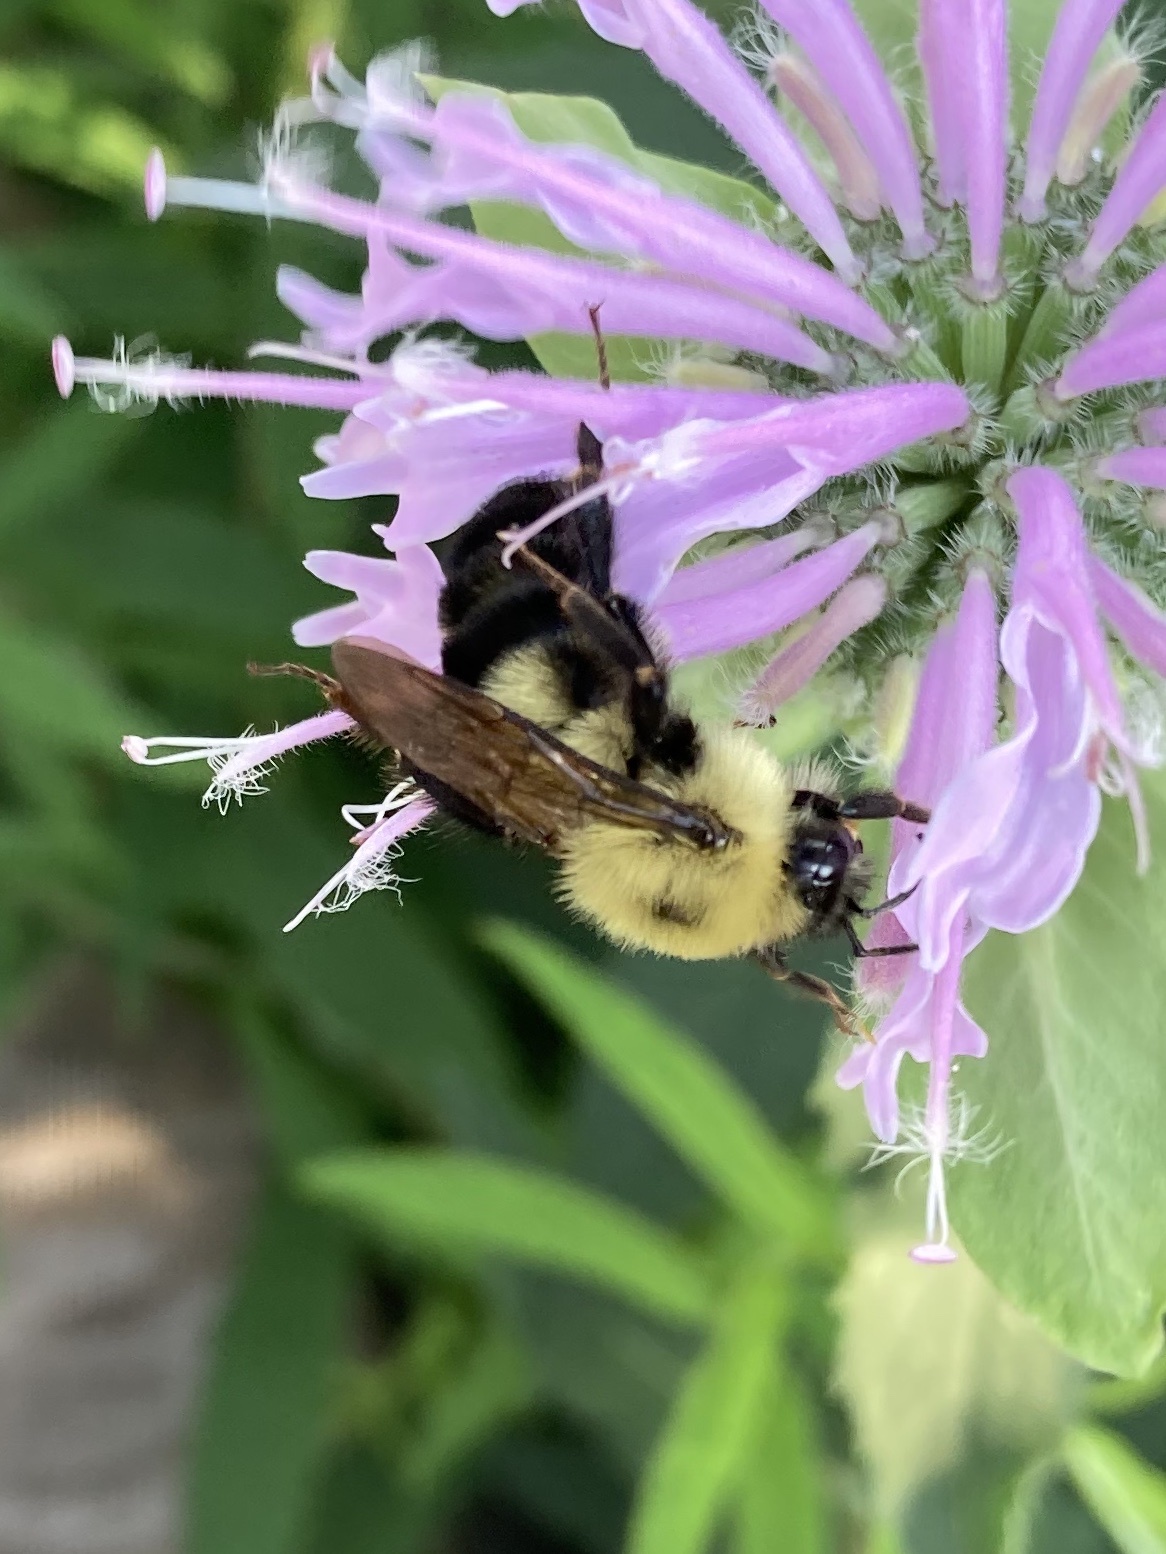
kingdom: Animalia
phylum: Arthropoda
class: Insecta
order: Hymenoptera
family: Apidae
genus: Bombus
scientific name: Bombus bimaculatus
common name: Two-spotted bumble bee
